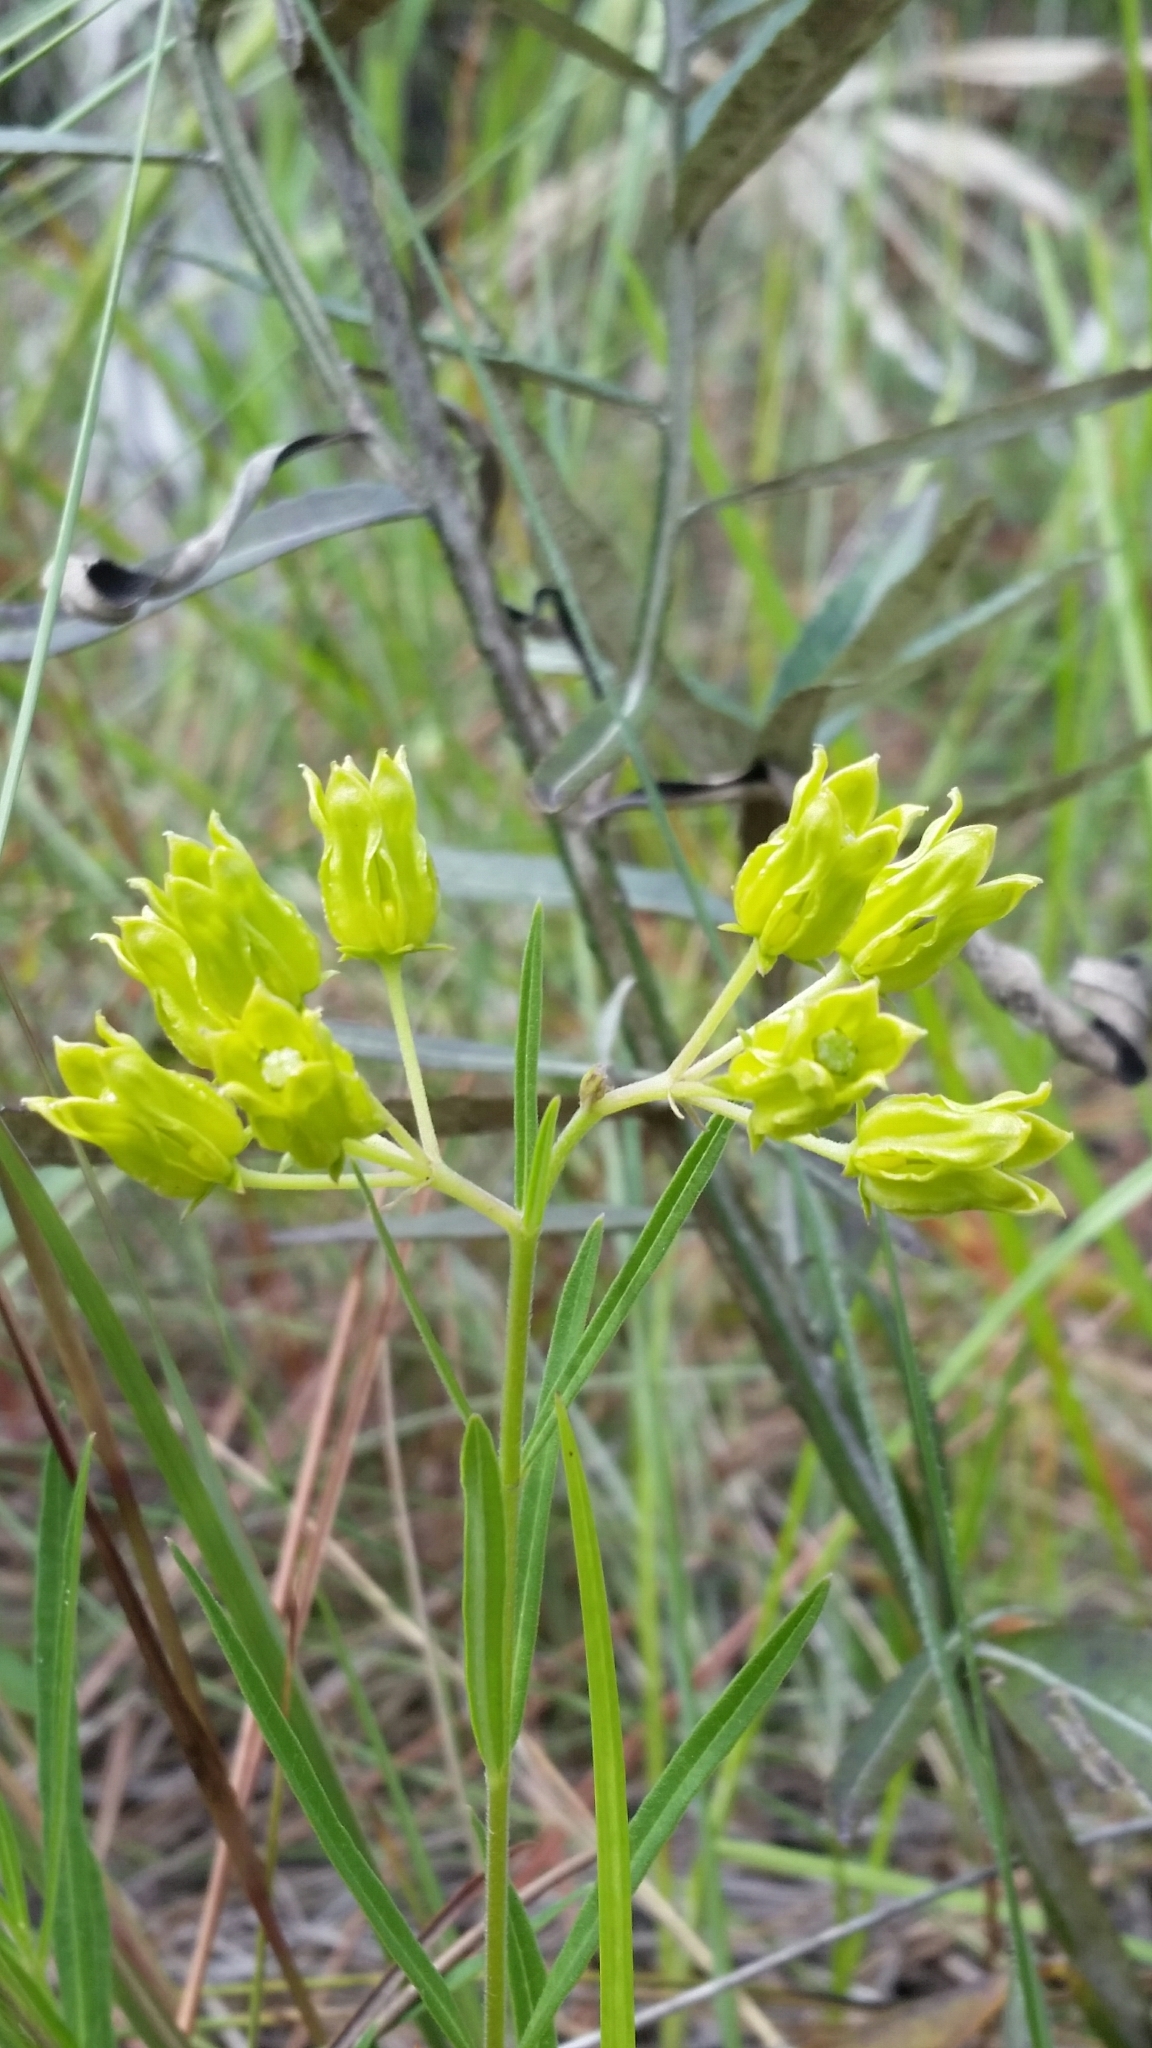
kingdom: Plantae
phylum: Tracheophyta
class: Magnoliopsida
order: Gentianales
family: Apocynaceae
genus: Asclepias
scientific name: Asclepias pedicellata
